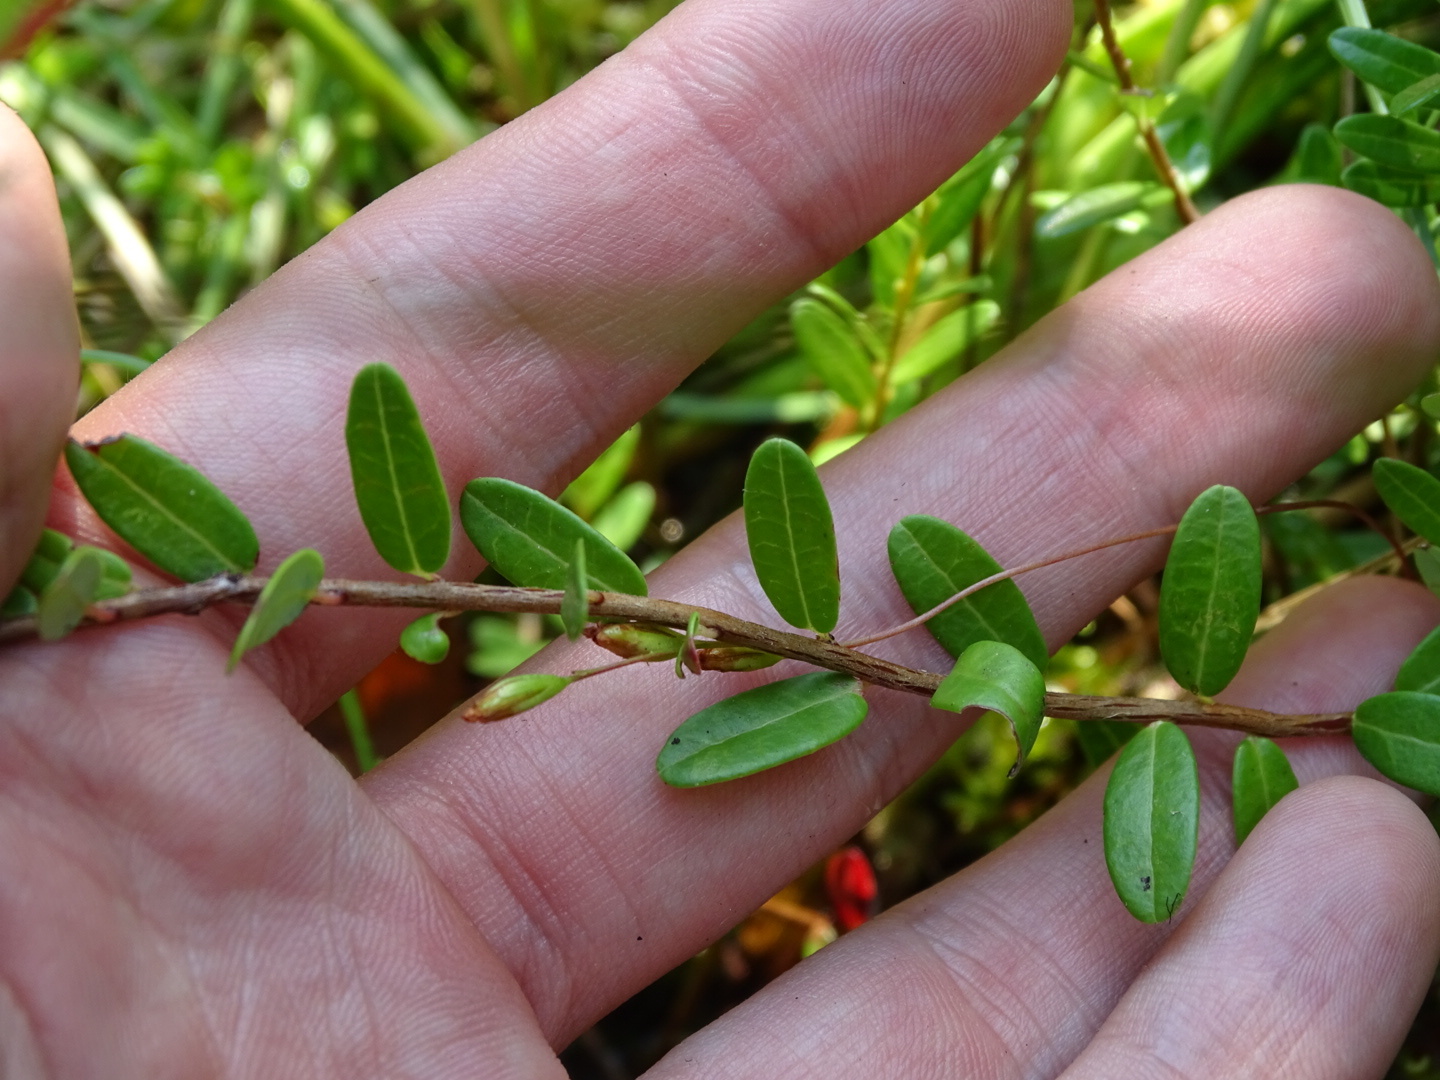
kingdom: Plantae
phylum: Tracheophyta
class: Magnoliopsida
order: Ericales
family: Ericaceae
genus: Vaccinium
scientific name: Vaccinium macrocarpon
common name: American cranberry
